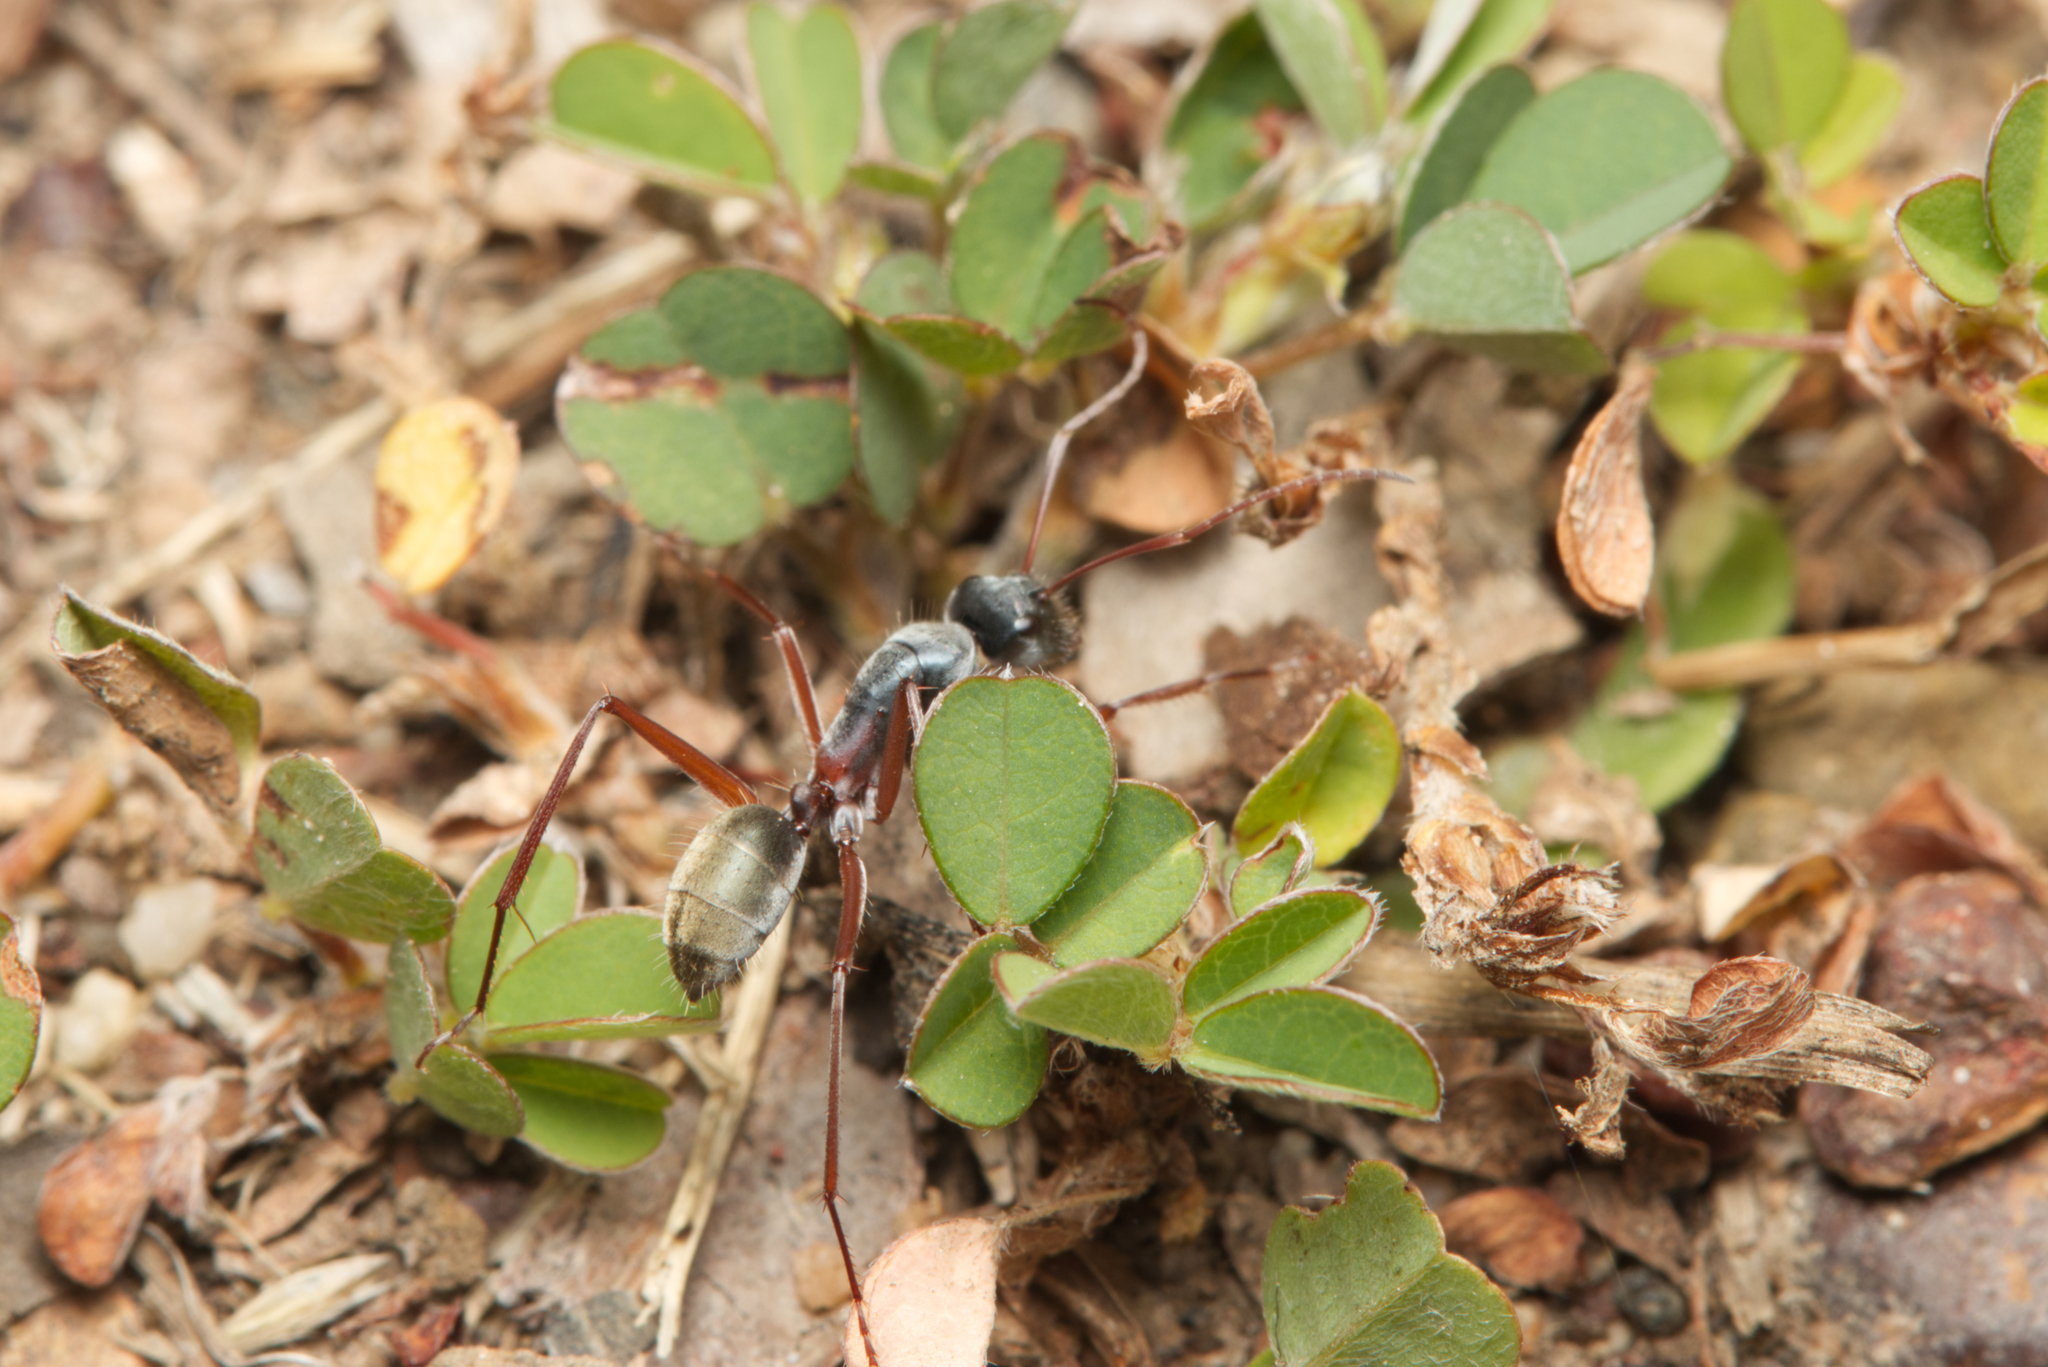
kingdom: Animalia
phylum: Arthropoda
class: Insecta
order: Hymenoptera
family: Formicidae
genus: Camponotus
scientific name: Camponotus dromas
